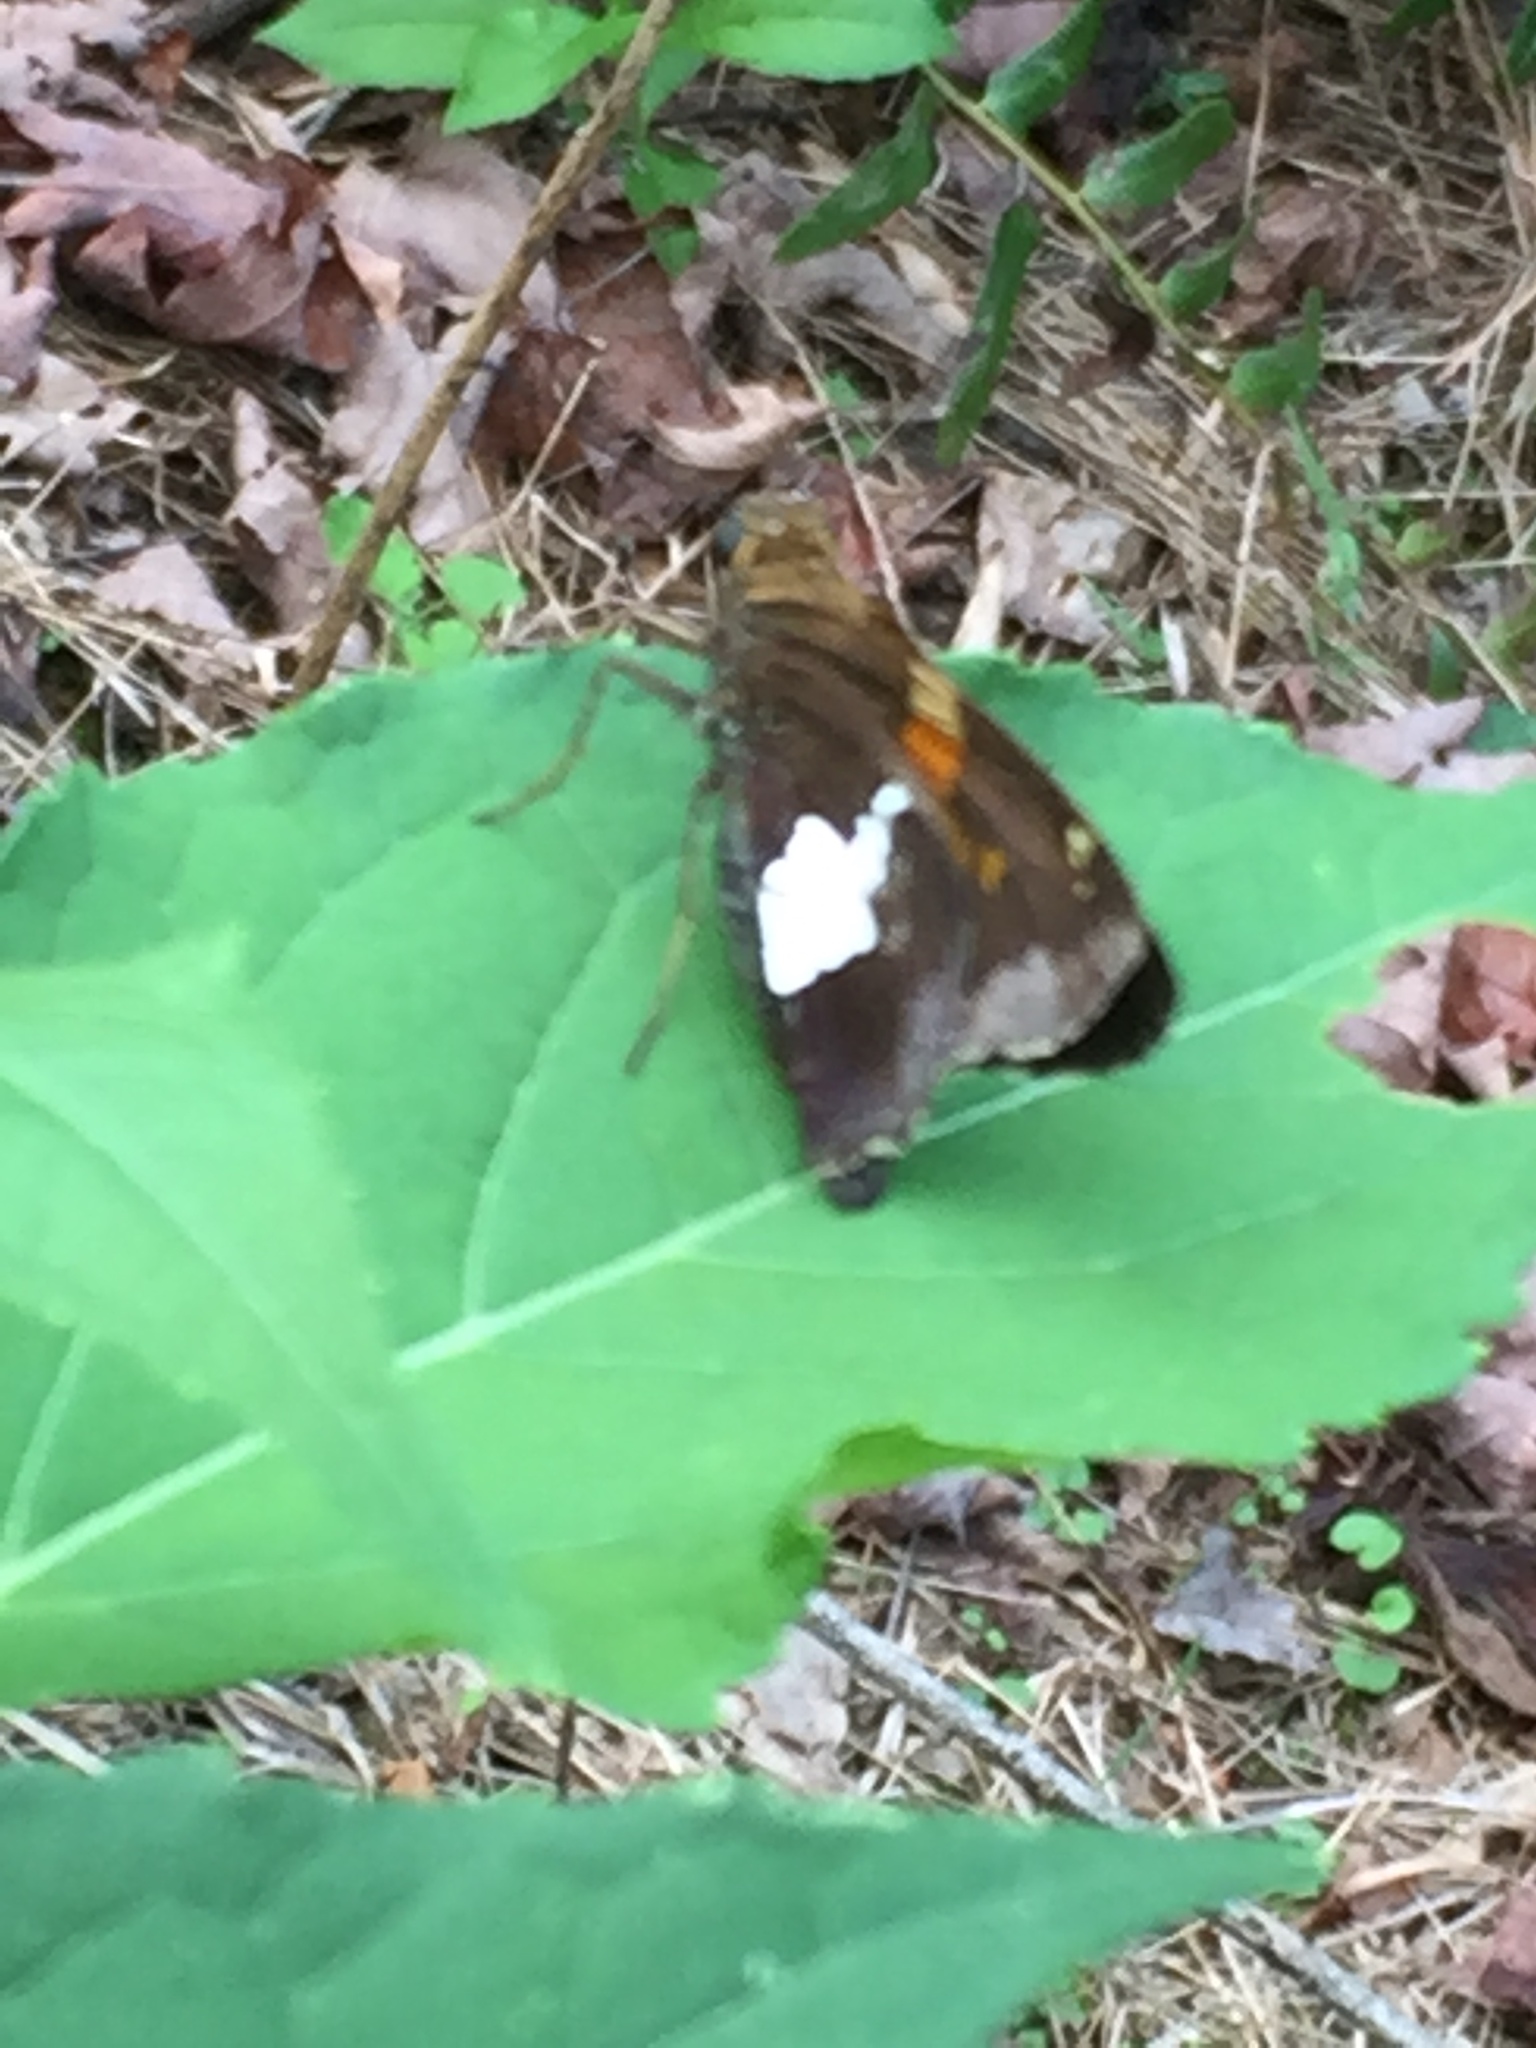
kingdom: Animalia
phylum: Arthropoda
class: Insecta
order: Lepidoptera
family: Hesperiidae
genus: Epargyreus
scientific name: Epargyreus clarus
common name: Silver-spotted skipper
